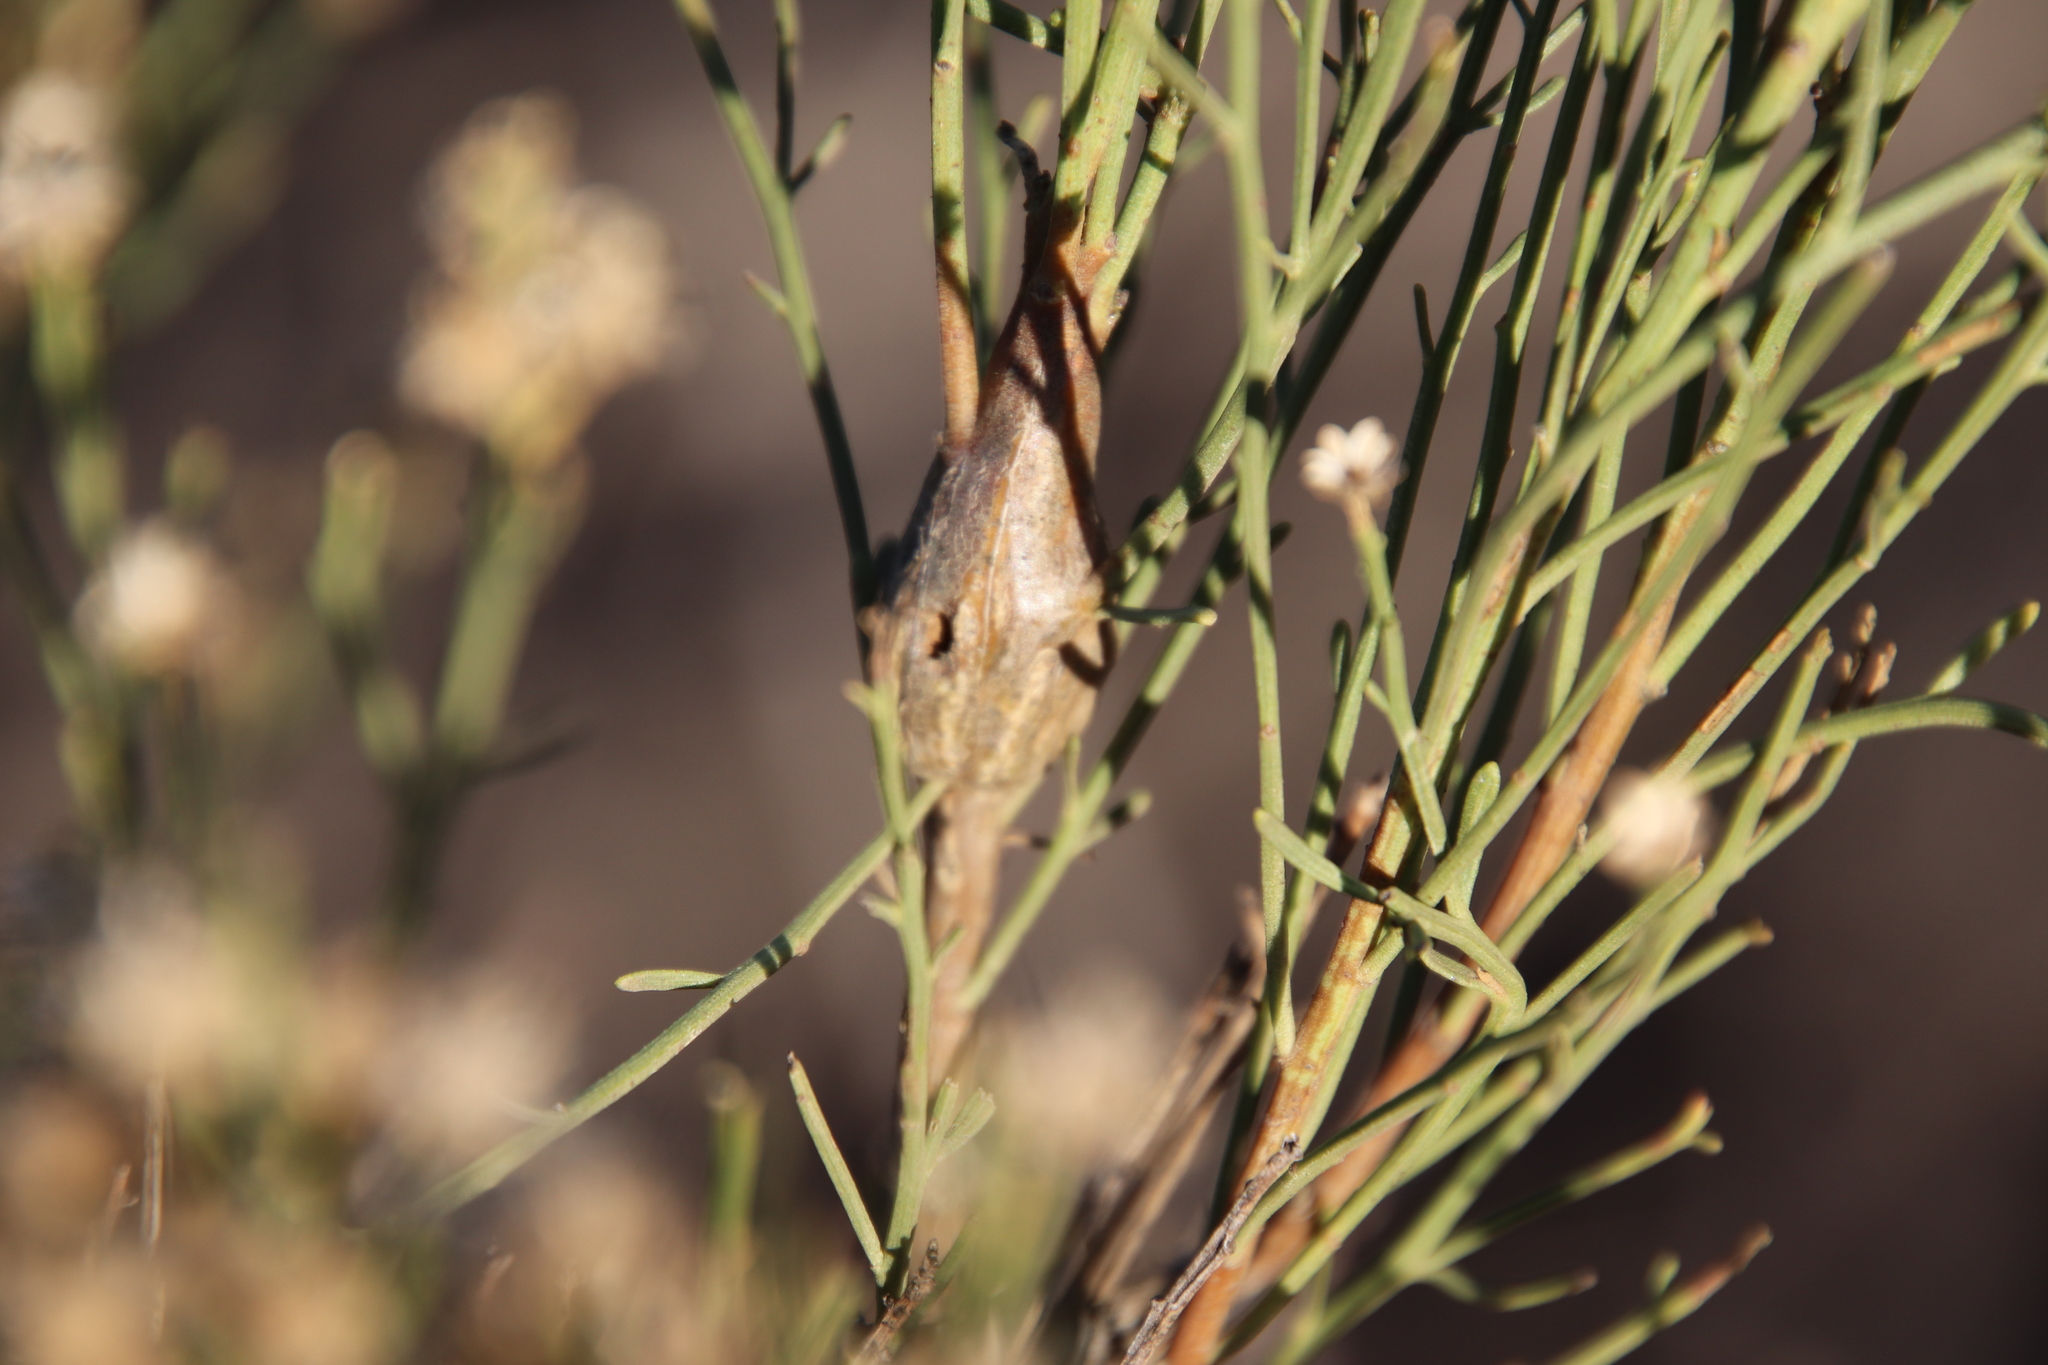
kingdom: Animalia
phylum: Arthropoda
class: Insecta
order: Lepidoptera
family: Gelechiidae
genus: Gnorimoschema
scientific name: Gnorimoschema powelli
